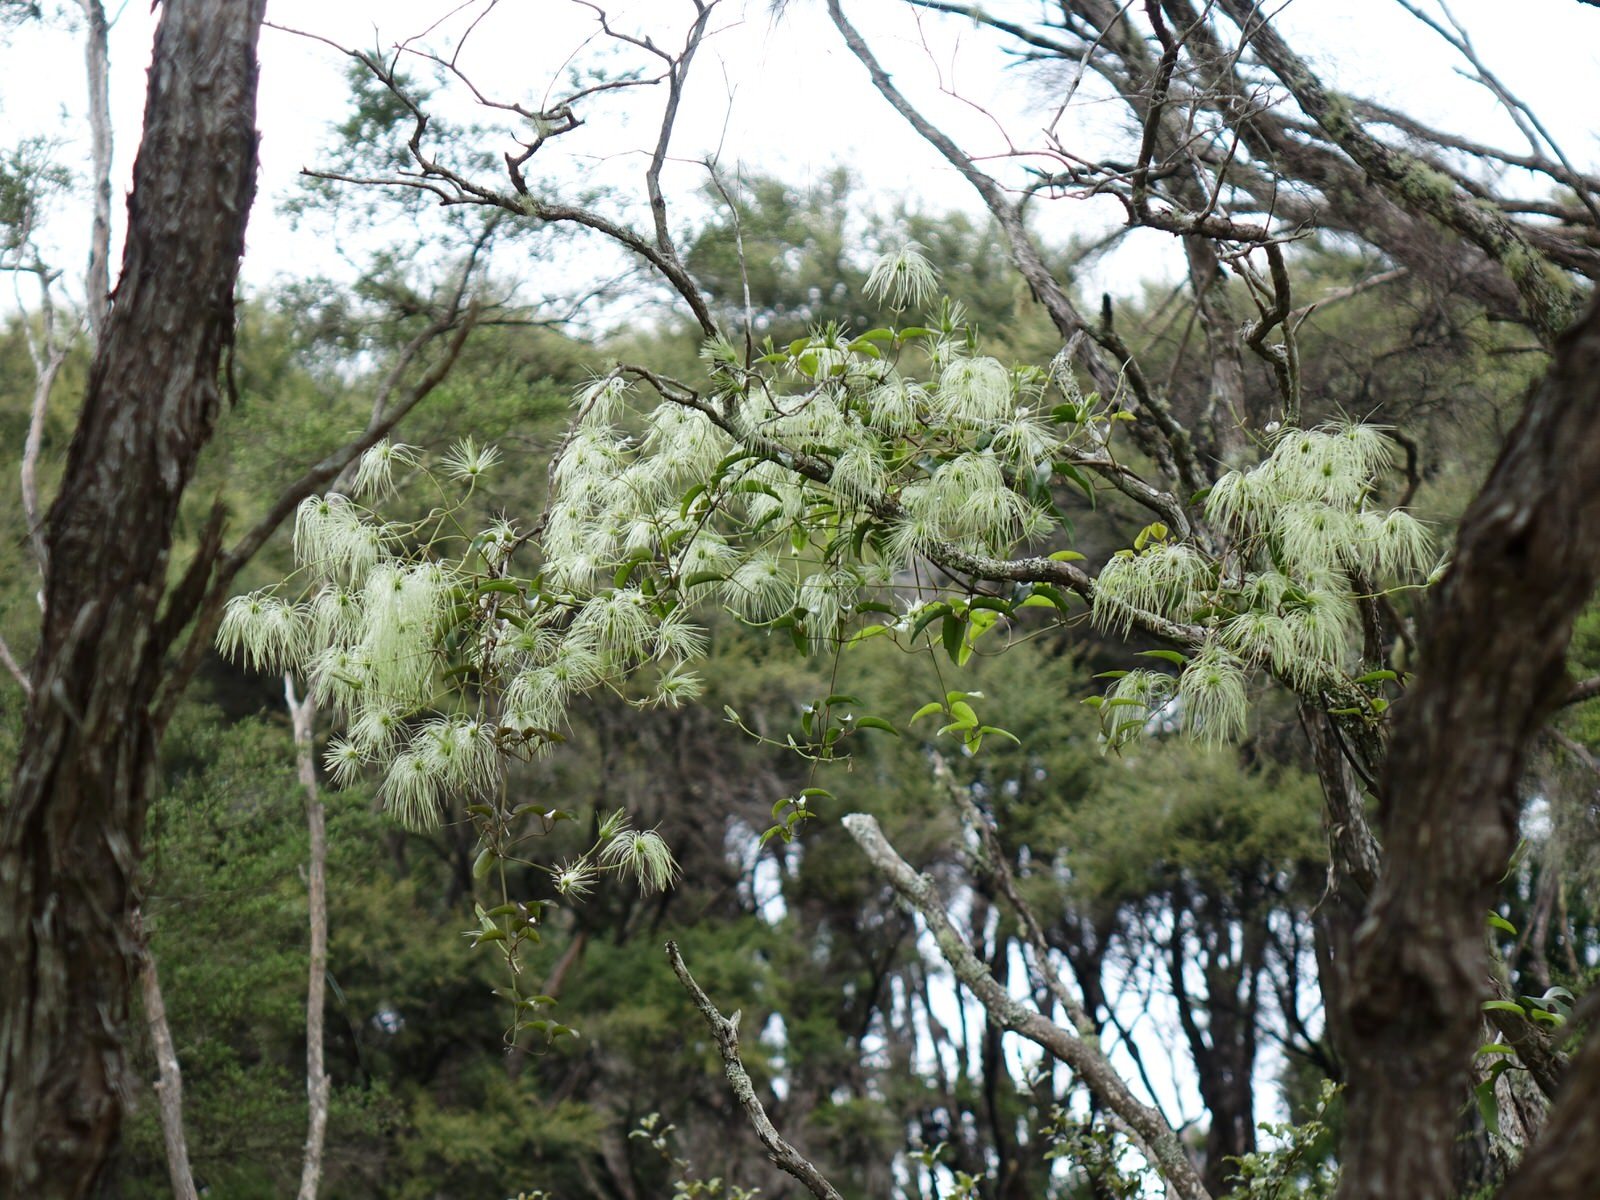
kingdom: Plantae
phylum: Tracheophyta
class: Magnoliopsida
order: Ranunculales
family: Ranunculaceae
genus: Clematis
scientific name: Clematis paniculata
